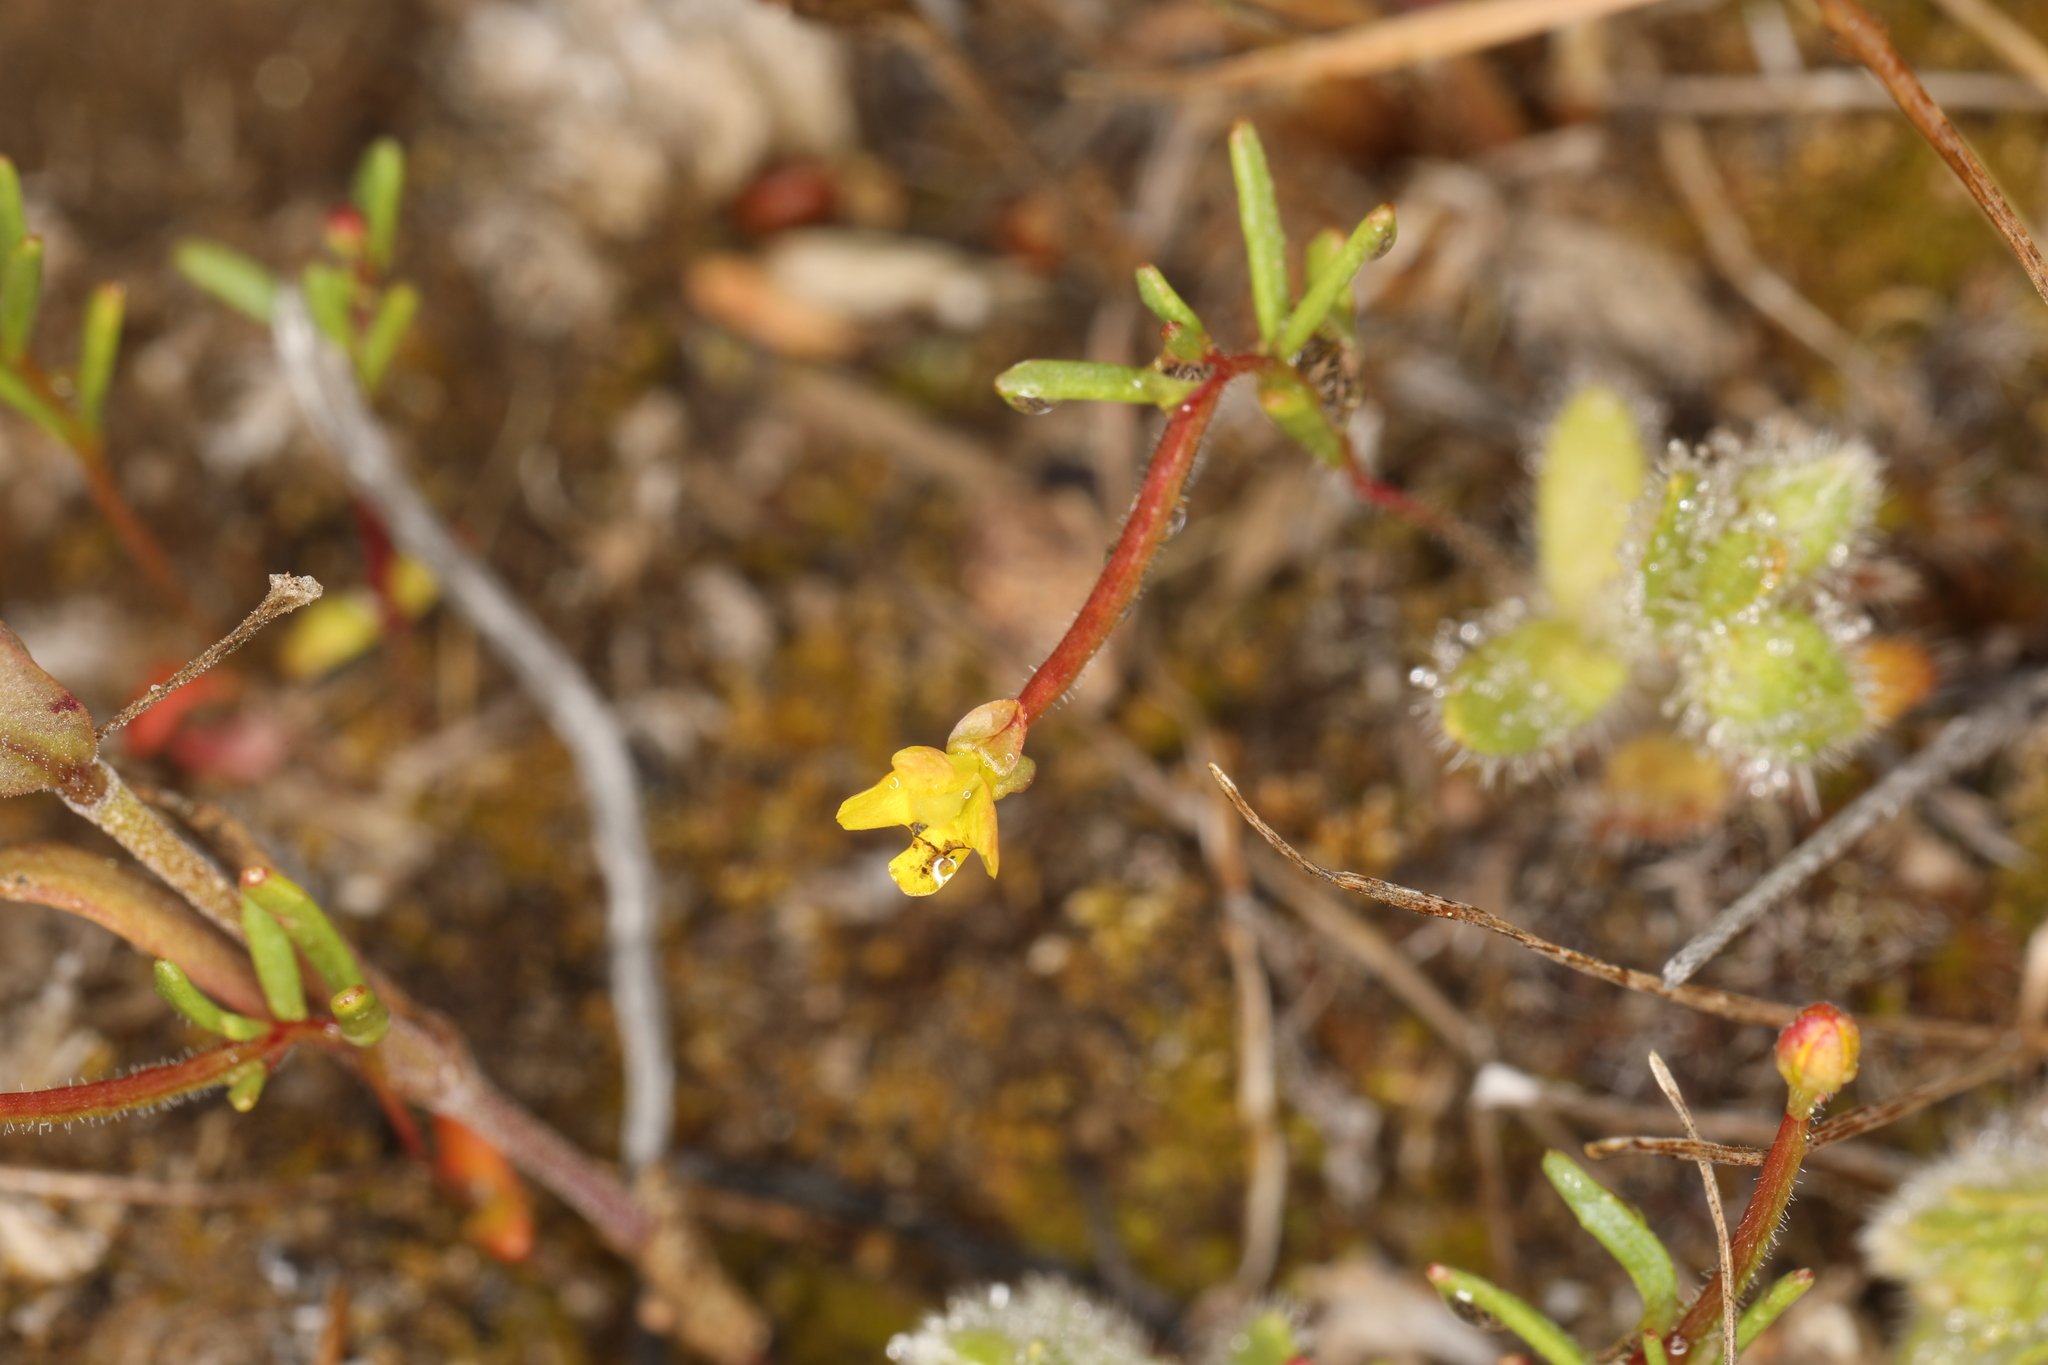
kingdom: Plantae
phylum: Tracheophyta
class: Magnoliopsida
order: Myrtales
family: Onagraceae
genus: Camissonia
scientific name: Camissonia contorta
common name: Contorted suncup
